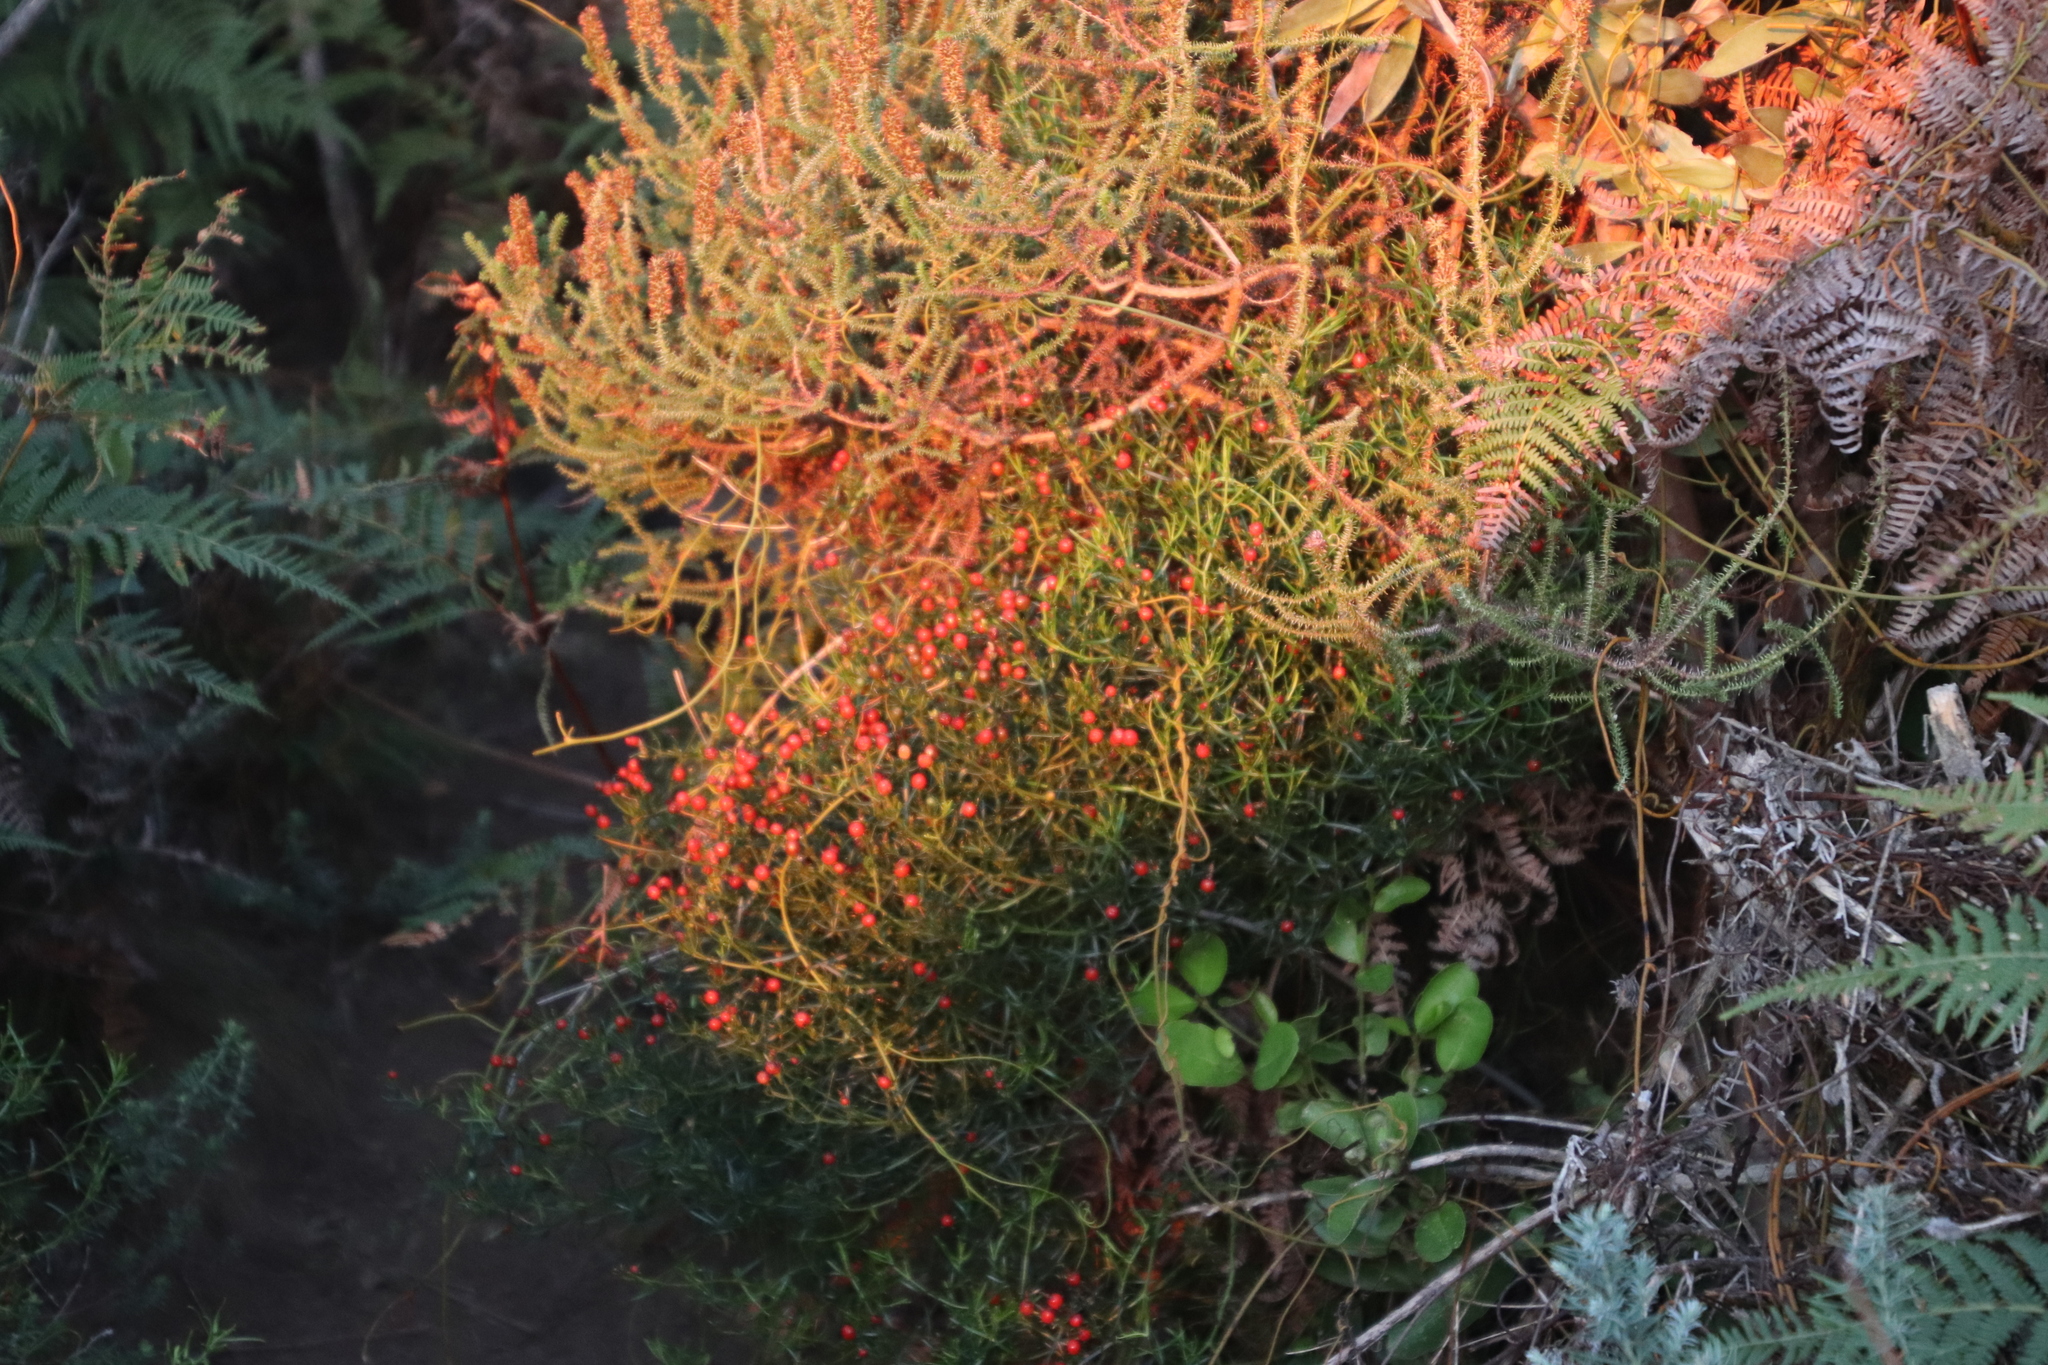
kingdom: Plantae
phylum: Tracheophyta
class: Magnoliopsida
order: Gentianales
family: Gentianaceae
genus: Chironia
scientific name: Chironia baccifera
